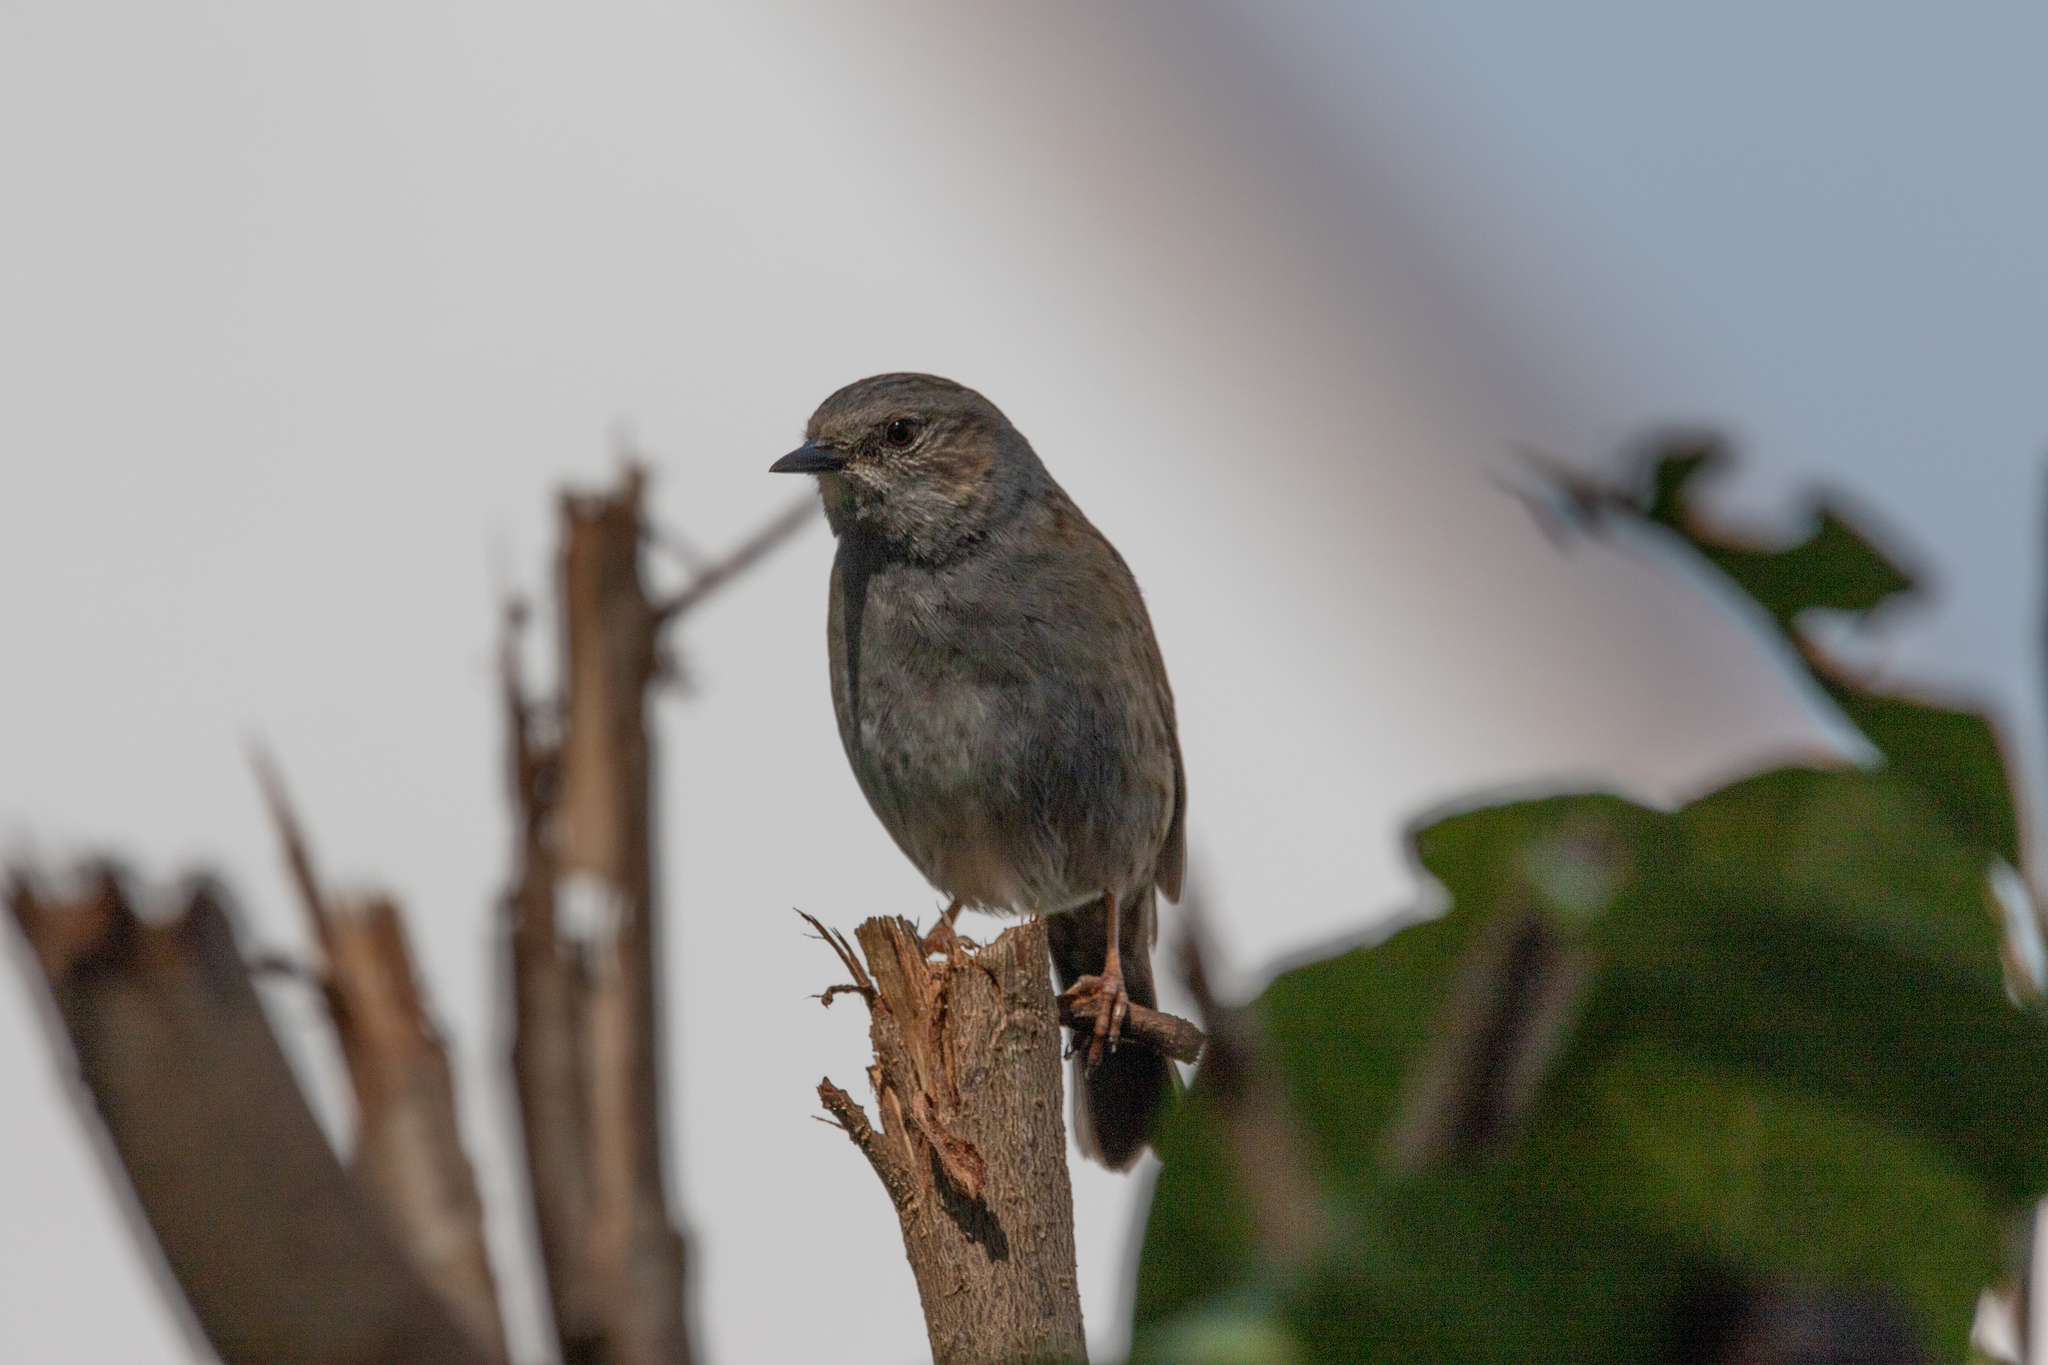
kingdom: Animalia
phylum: Chordata
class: Aves
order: Passeriformes
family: Prunellidae
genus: Prunella
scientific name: Prunella modularis
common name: Dunnock
